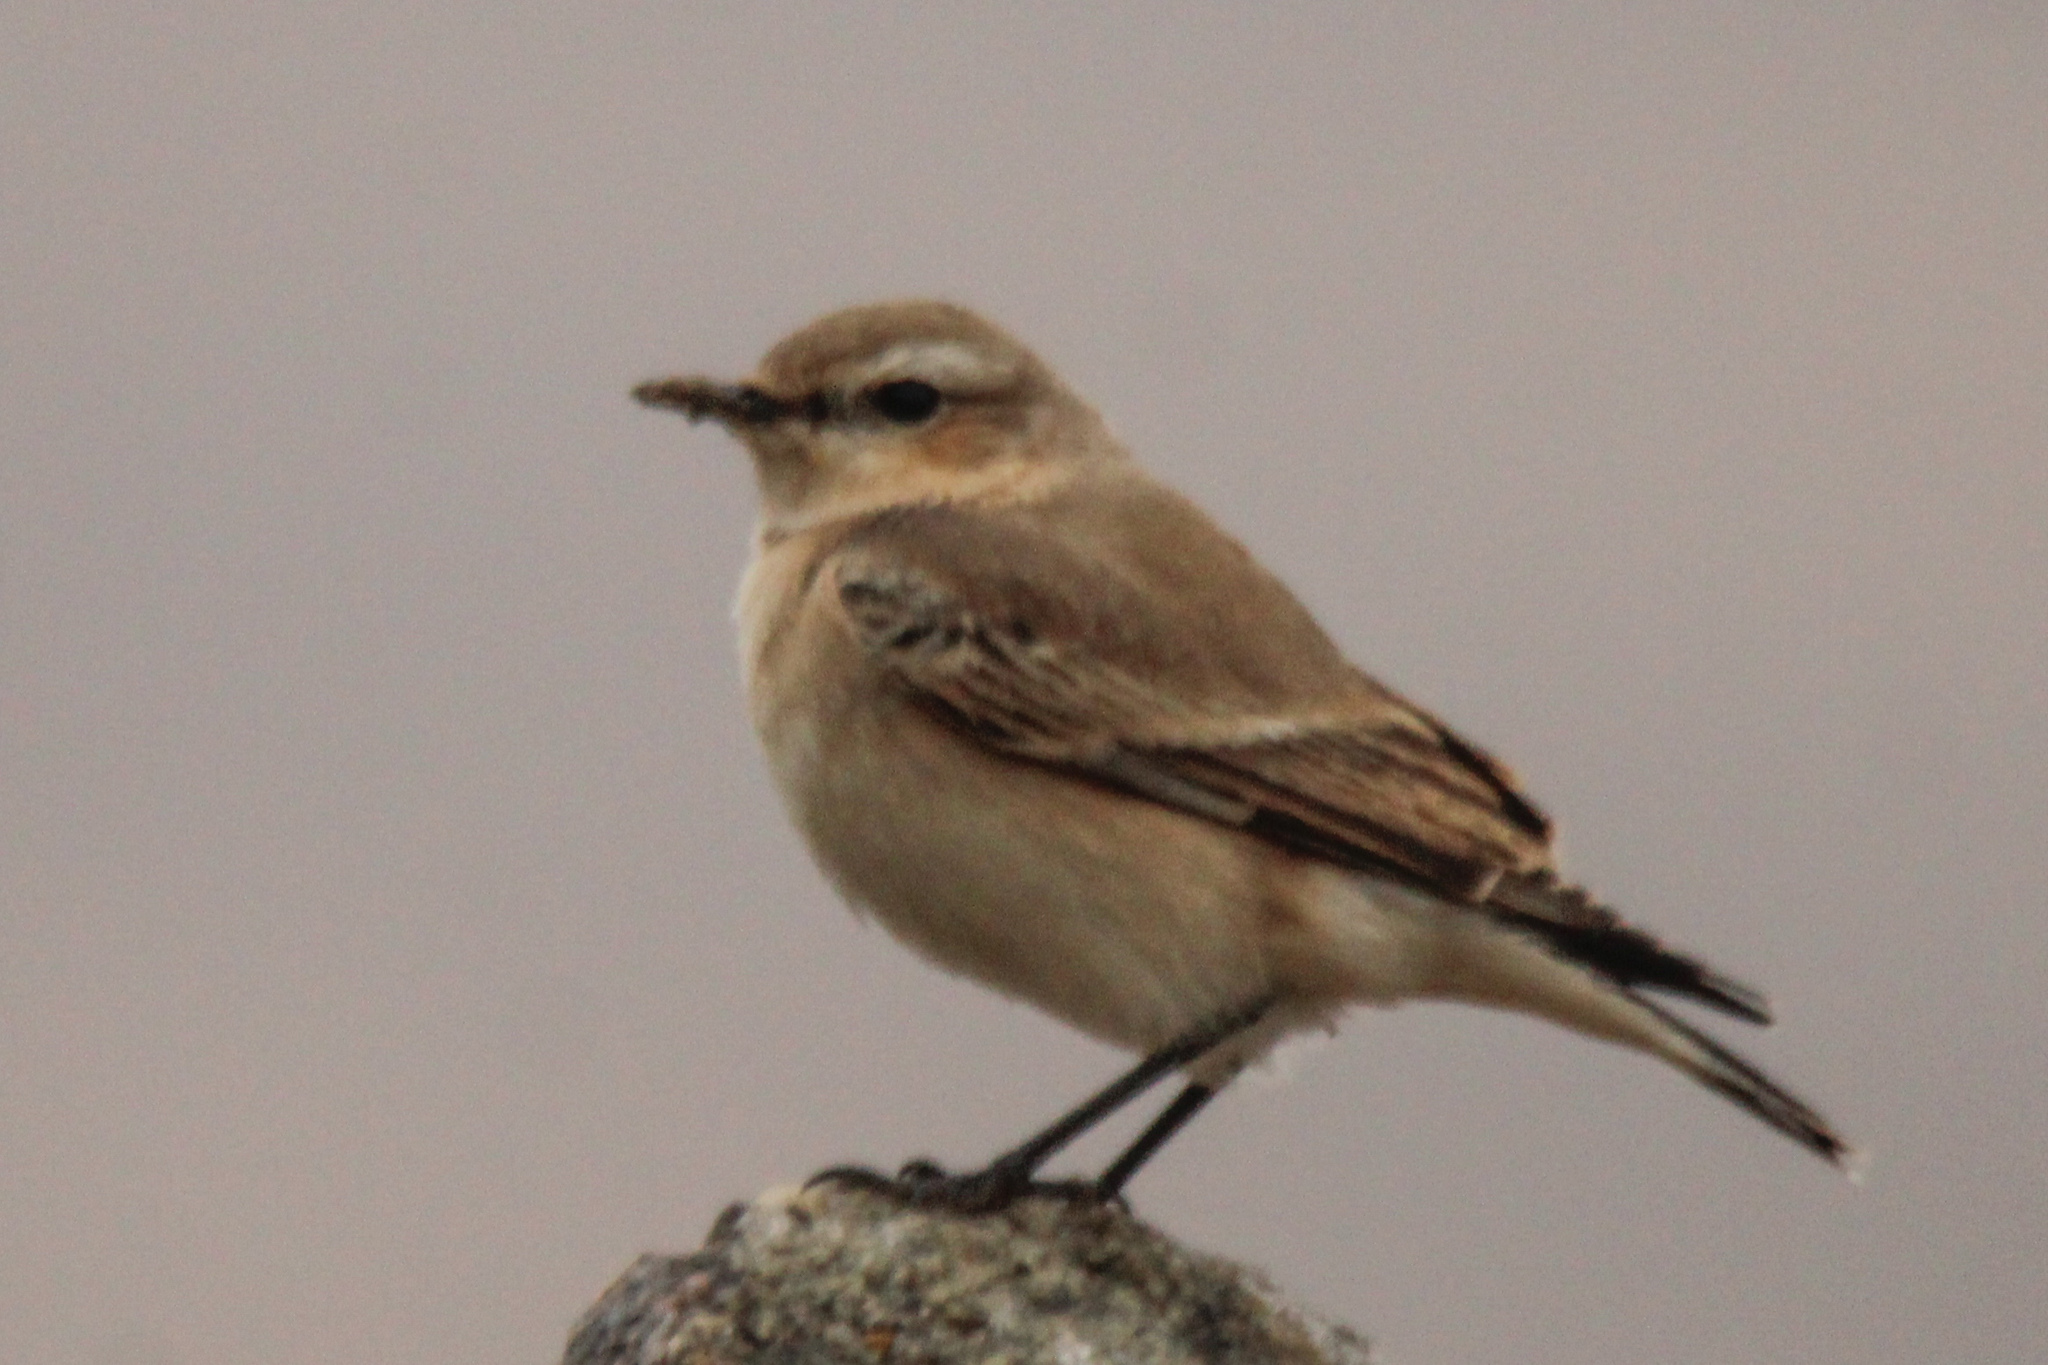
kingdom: Animalia
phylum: Chordata
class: Aves
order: Passeriformes
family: Muscicapidae
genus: Oenanthe
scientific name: Oenanthe deserti
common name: Desert wheatear
